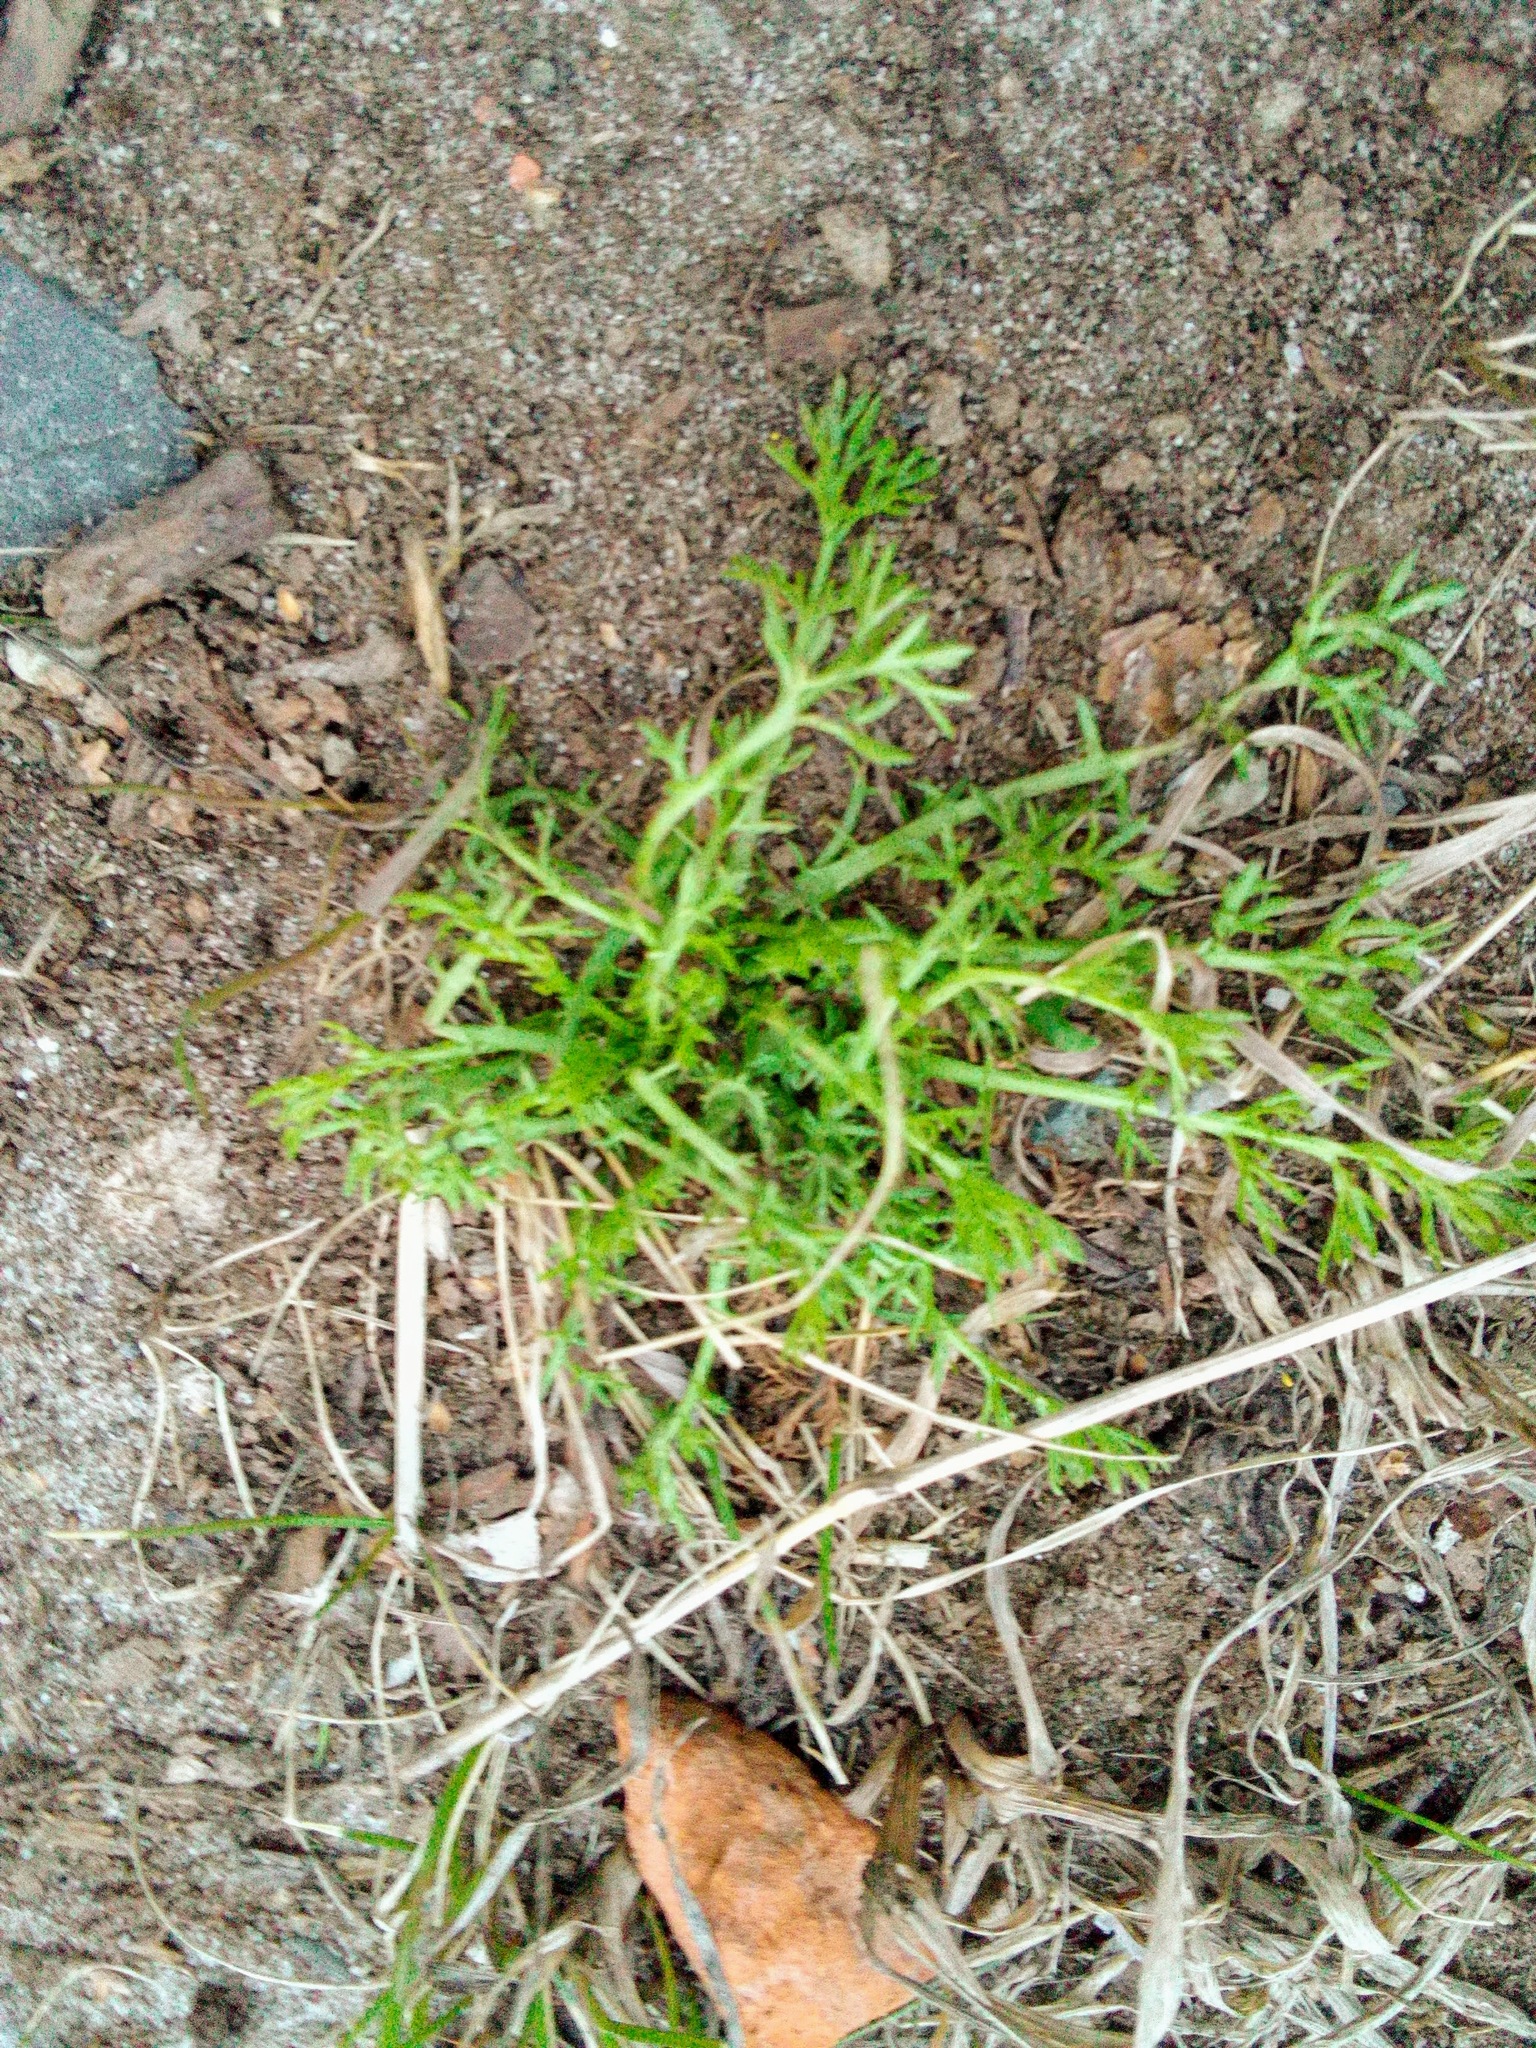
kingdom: Plantae
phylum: Tracheophyta
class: Magnoliopsida
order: Asterales
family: Asteraceae
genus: Matricaria
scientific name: Matricaria discoidea
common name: Disc mayweed
